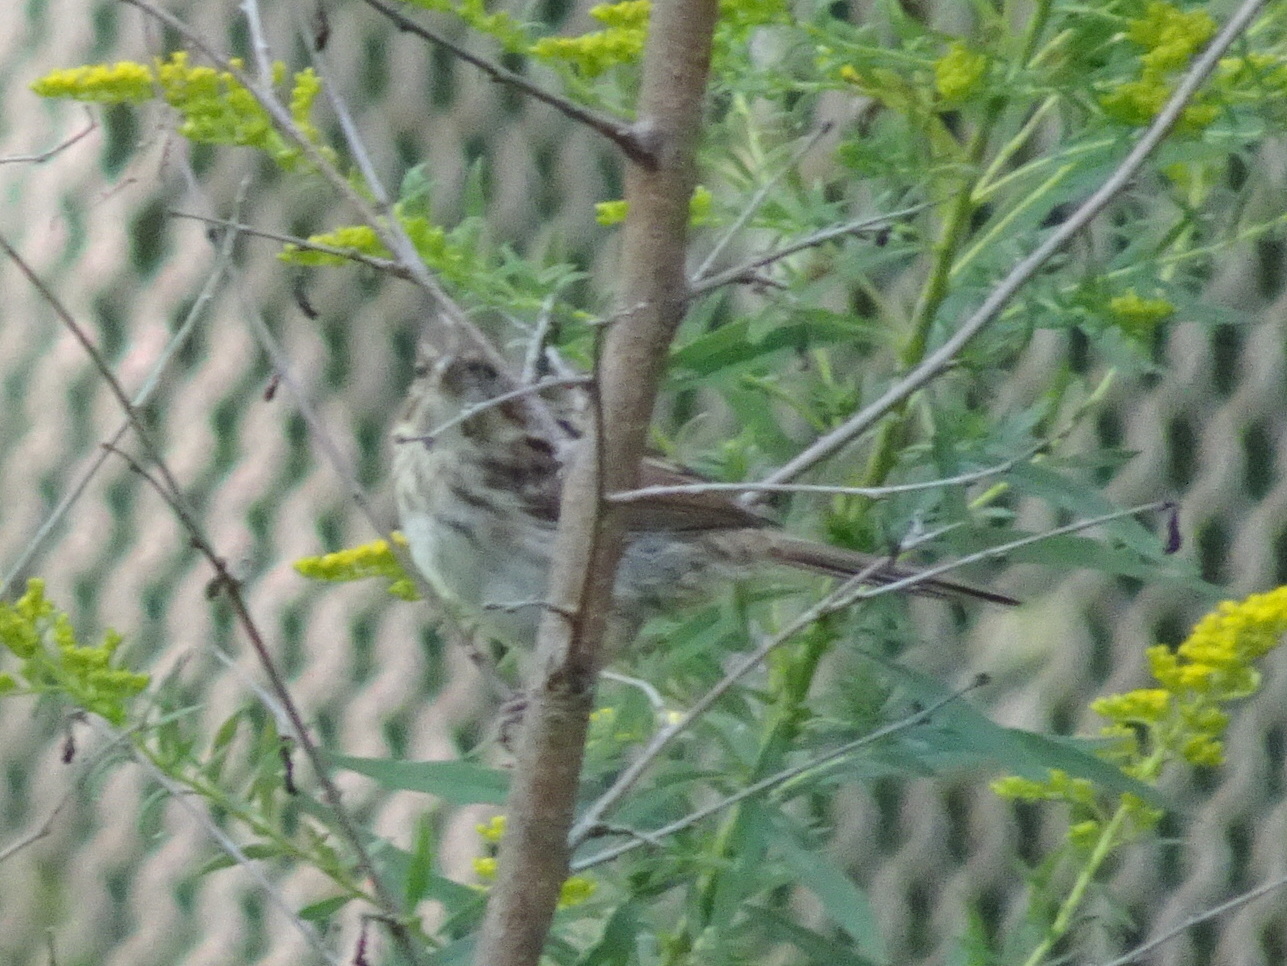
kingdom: Animalia
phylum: Chordata
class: Aves
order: Passeriformes
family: Passerellidae
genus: Melospiza
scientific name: Melospiza melodia
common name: Song sparrow
